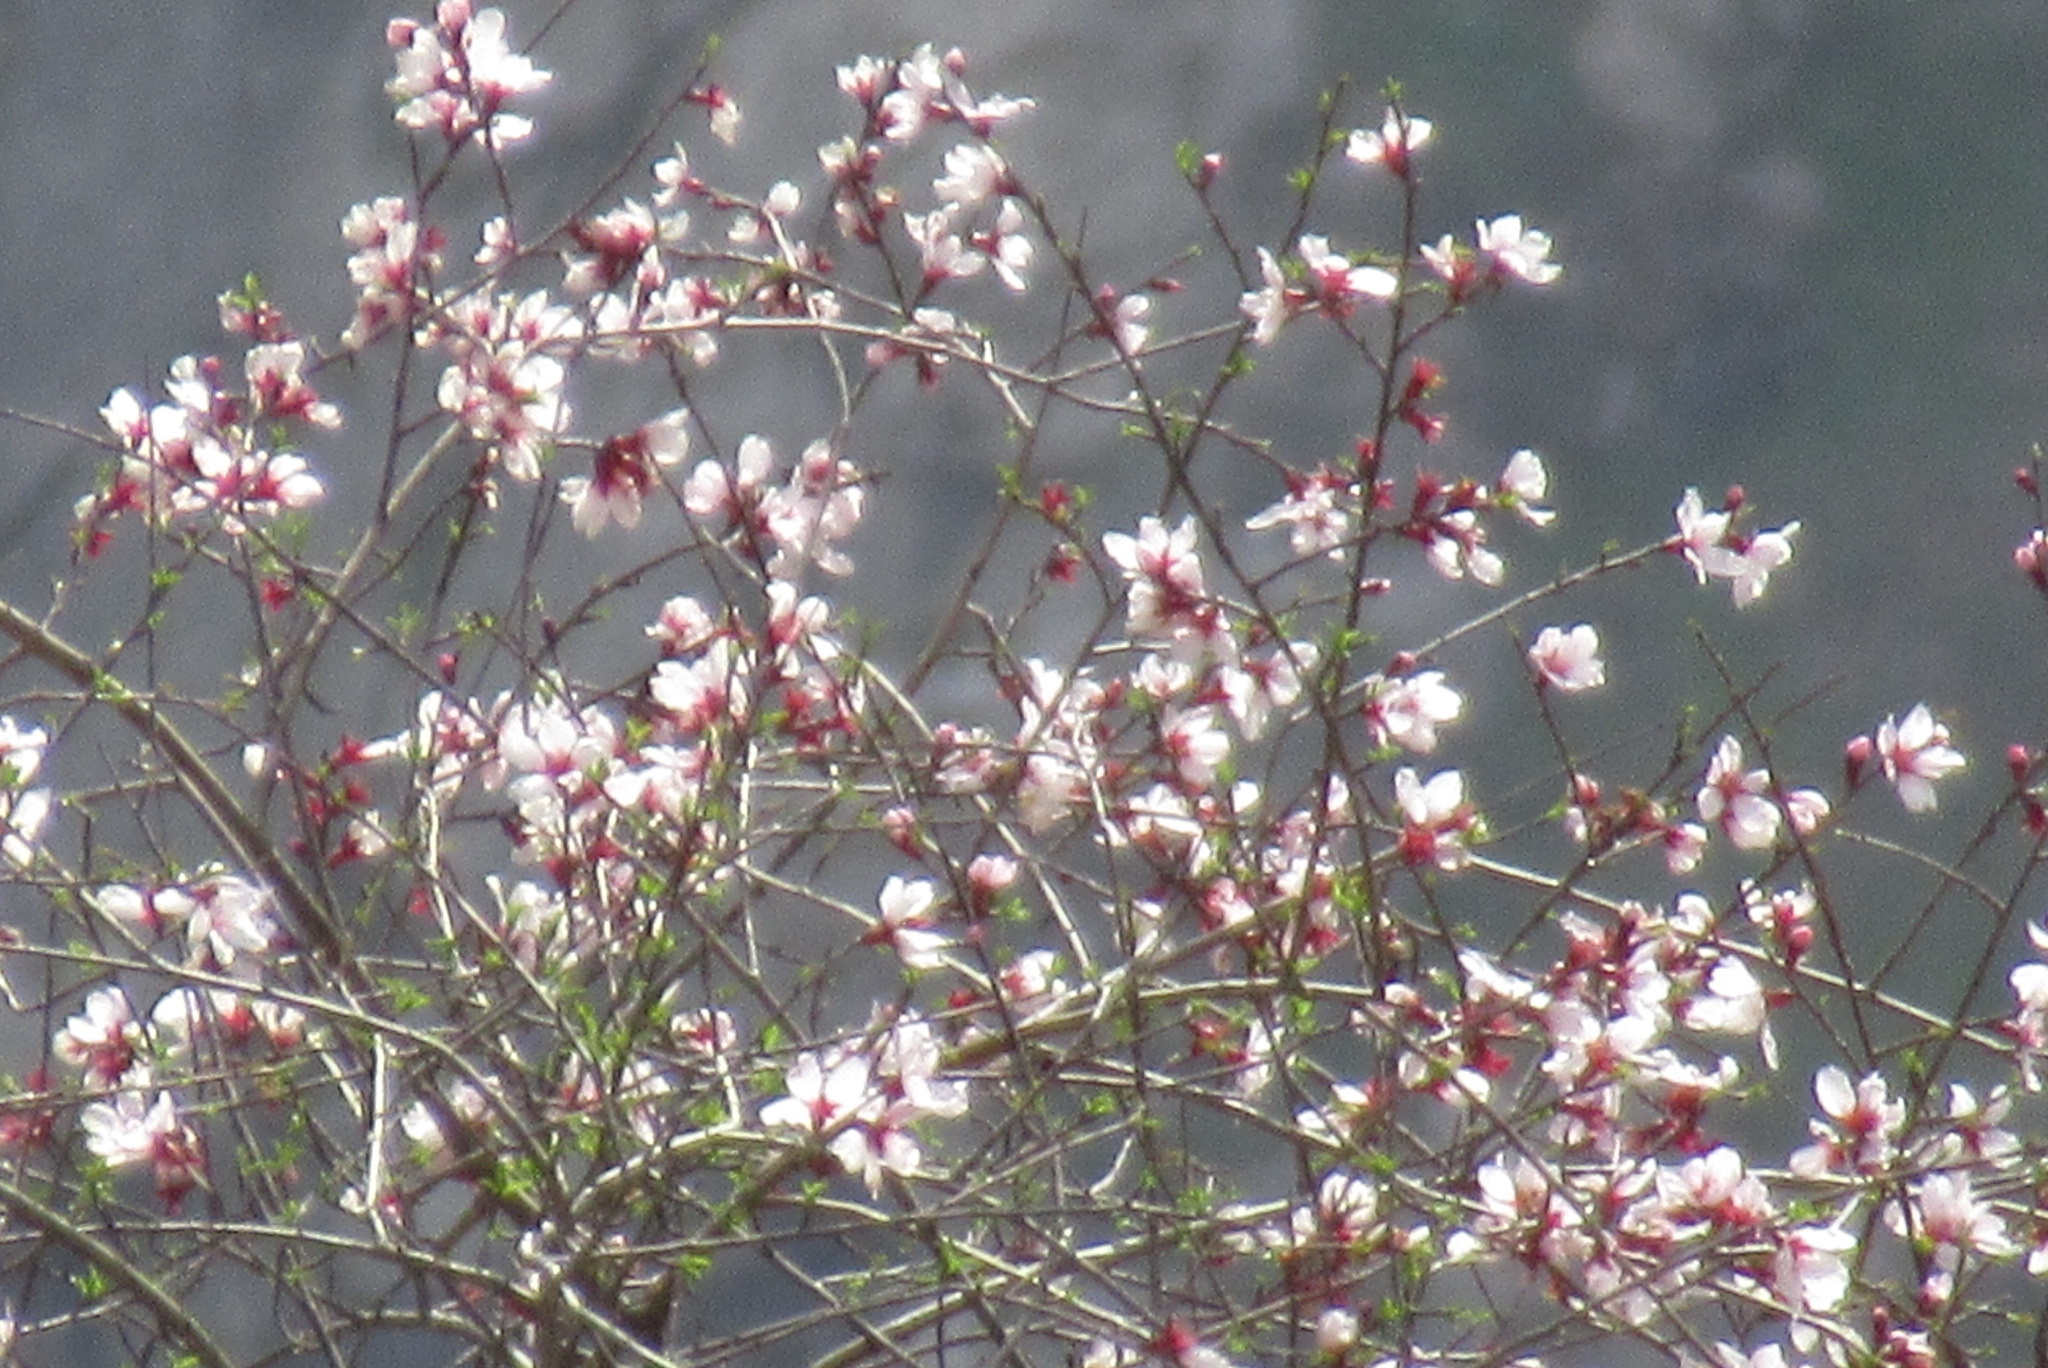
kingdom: Plantae
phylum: Tracheophyta
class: Magnoliopsida
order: Rosales
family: Rosaceae
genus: Prunus
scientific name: Prunus bucharica
